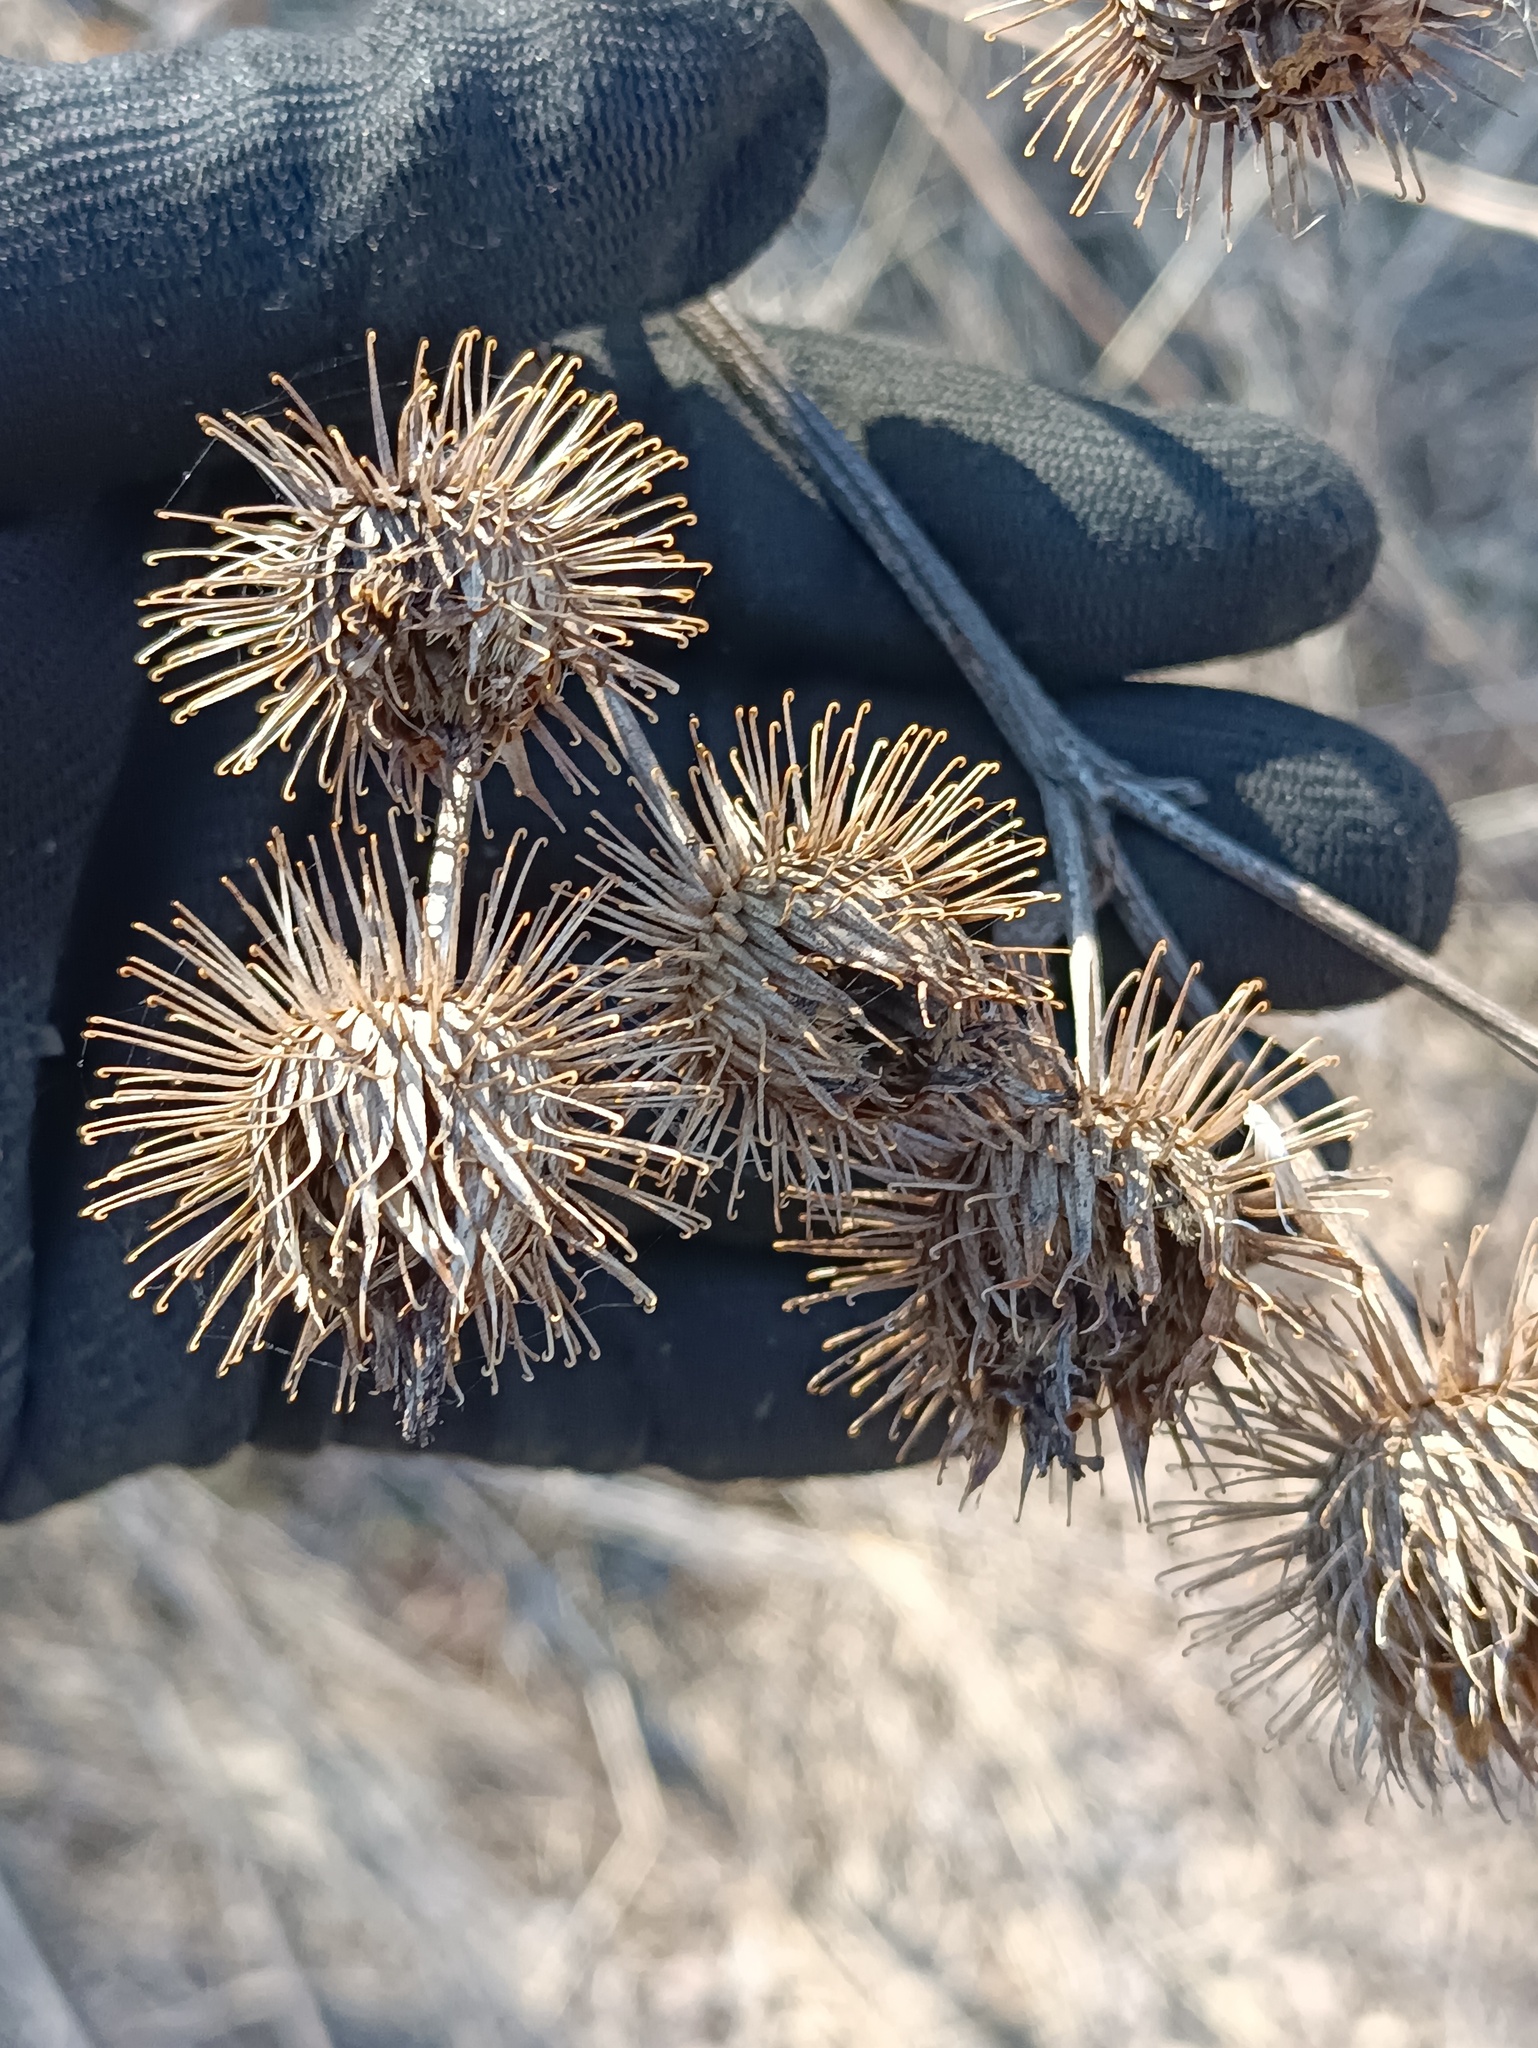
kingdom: Plantae
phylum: Tracheophyta
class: Magnoliopsida
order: Asterales
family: Asteraceae
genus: Arctium
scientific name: Arctium tomentosum
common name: Woolly burdock
